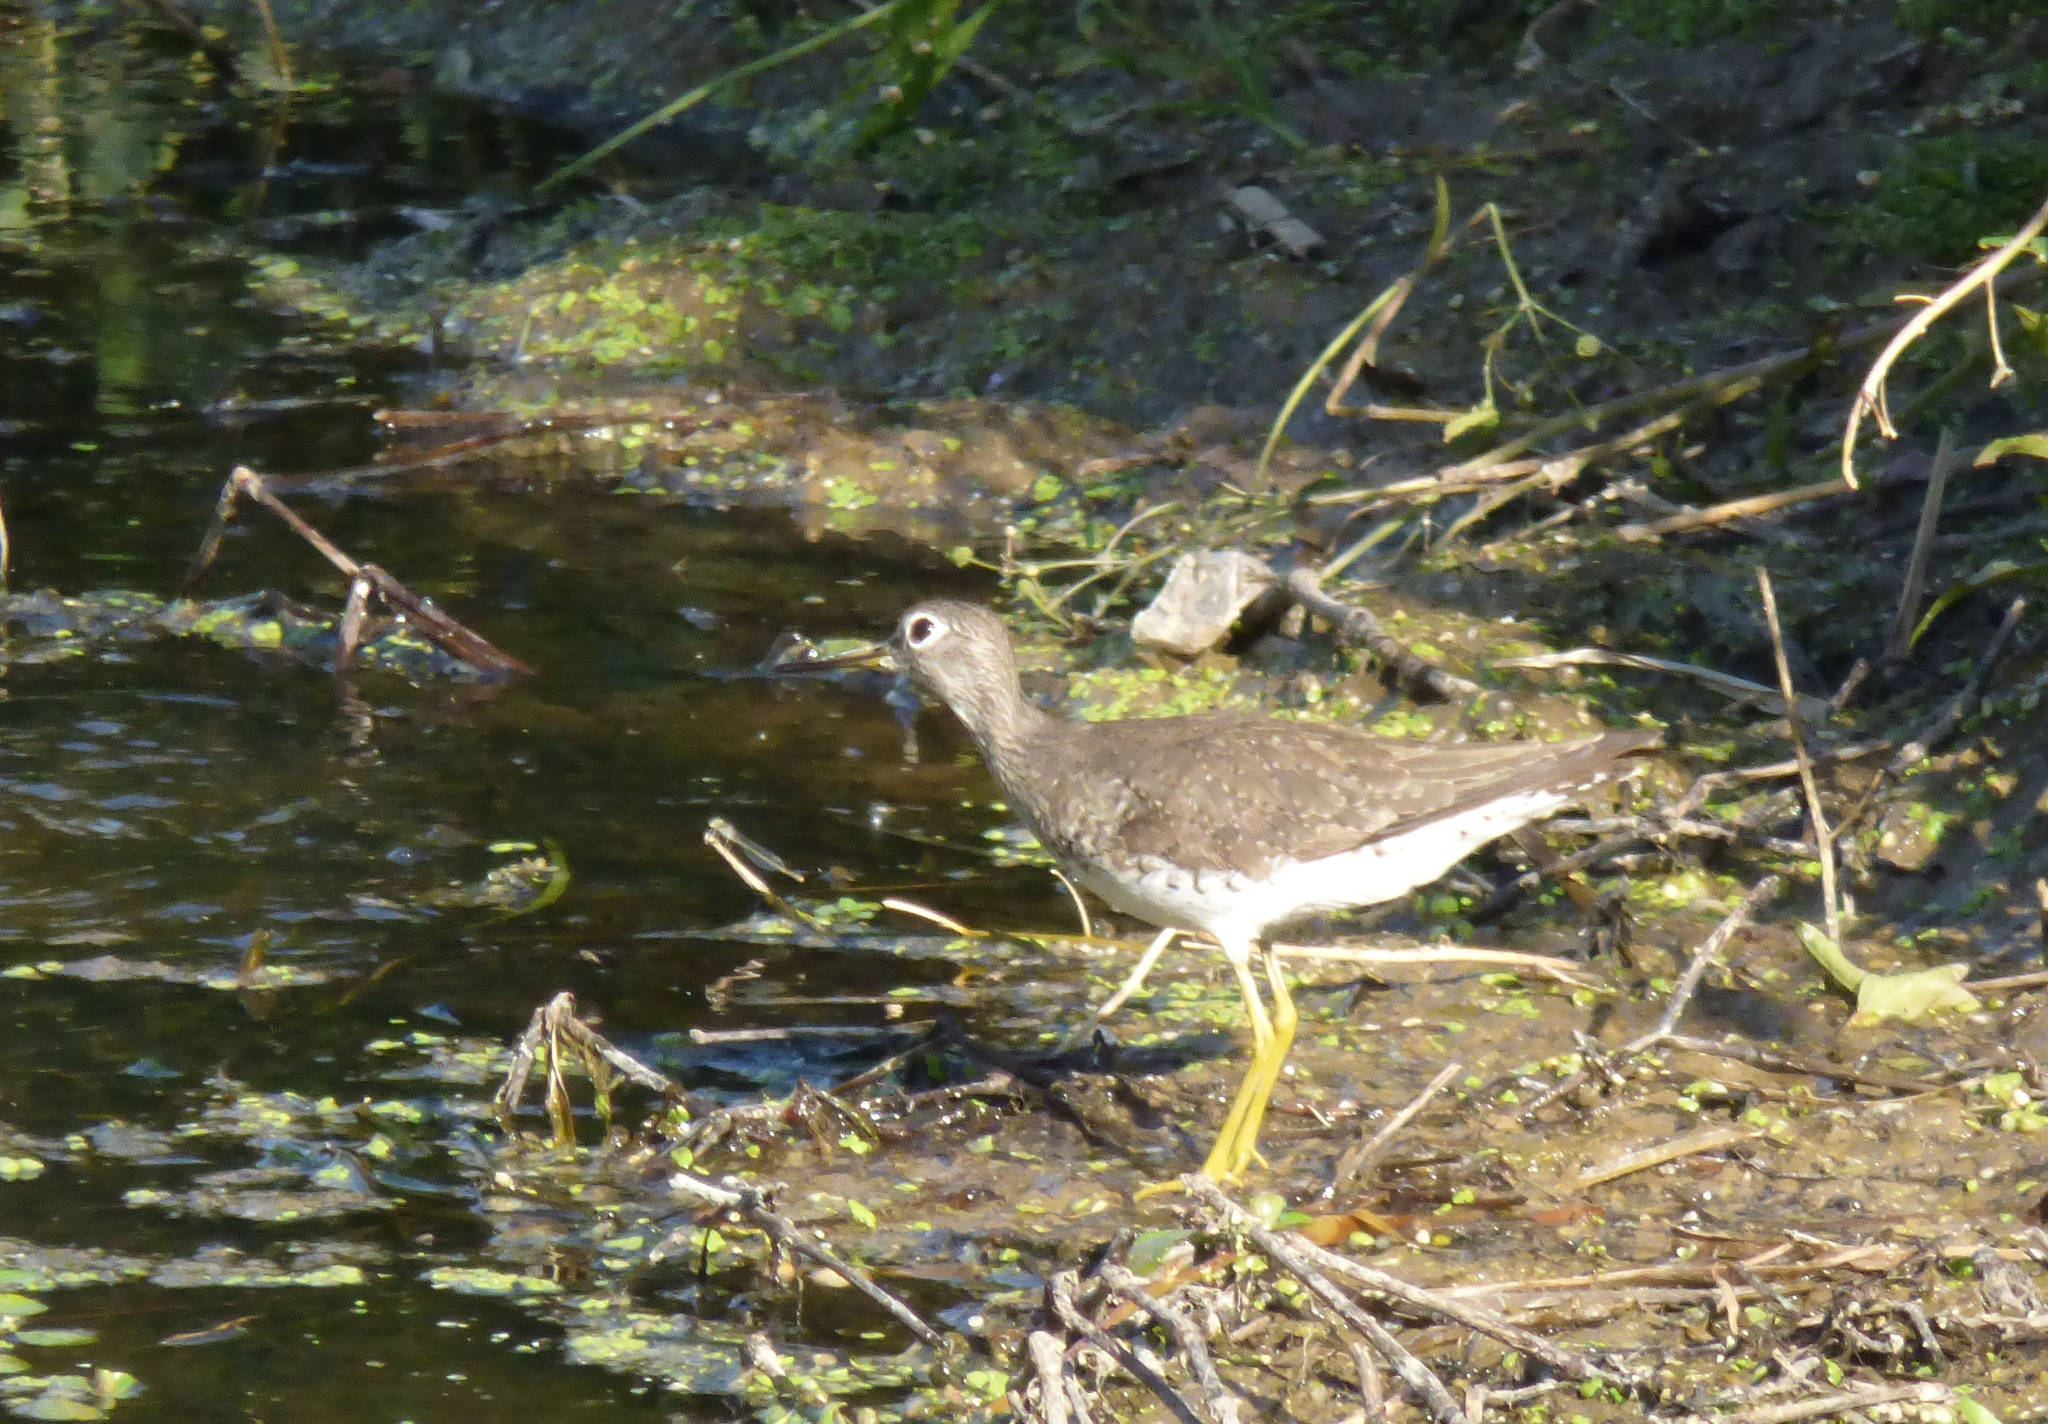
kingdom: Animalia
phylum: Chordata
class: Aves
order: Charadriiformes
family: Scolopacidae
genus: Tringa
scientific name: Tringa solitaria
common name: Solitary sandpiper
